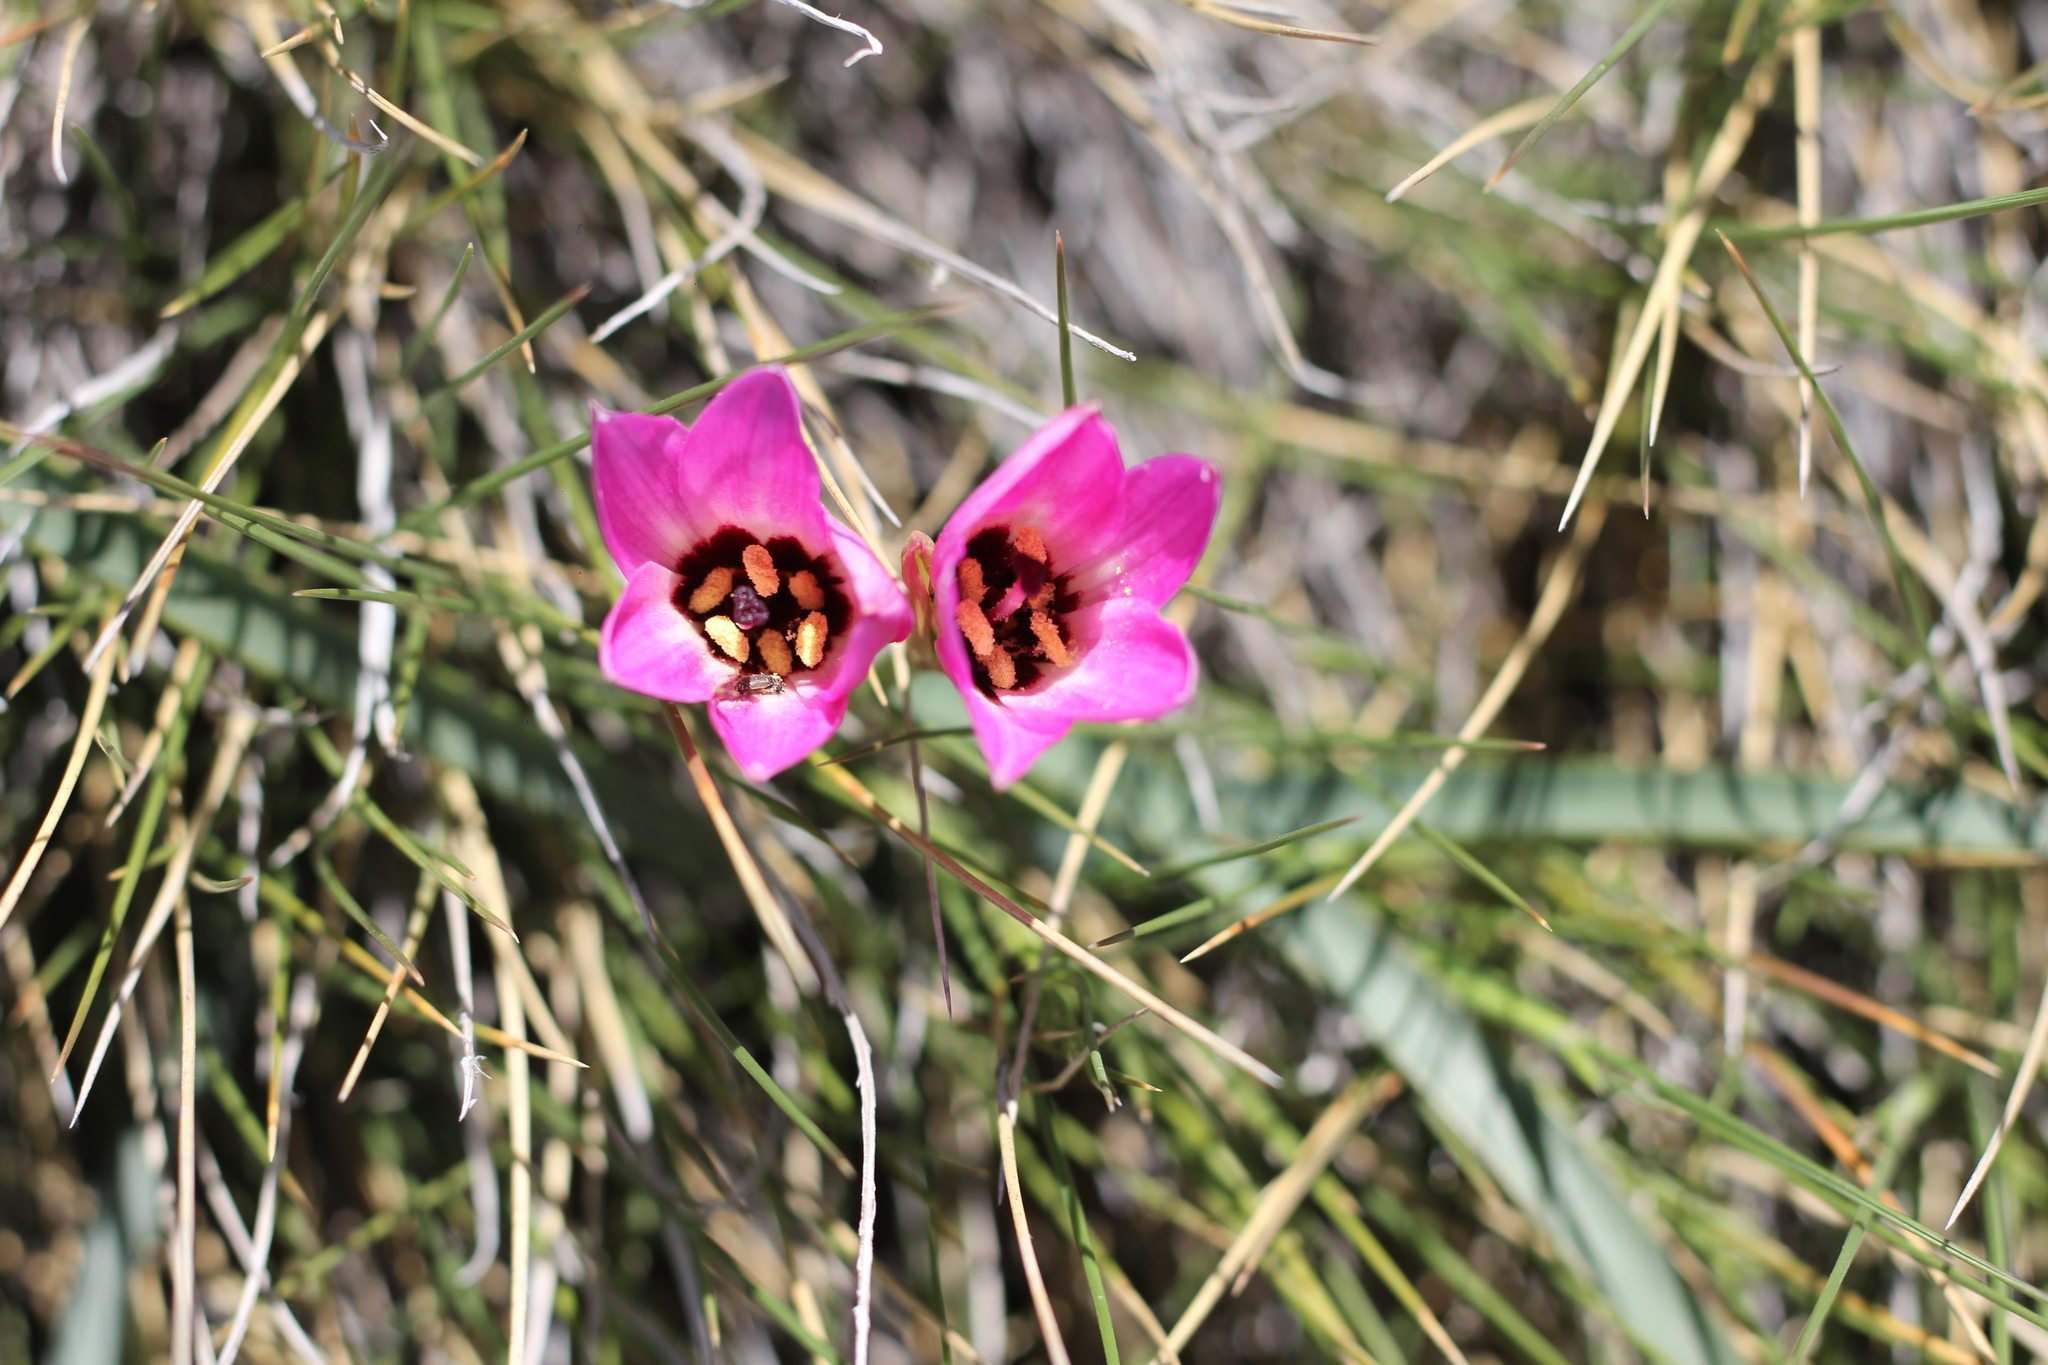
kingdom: Plantae
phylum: Tracheophyta
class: Liliopsida
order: Asparagales
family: Amaryllidaceae
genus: Rhodolirium
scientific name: Rhodolirium andicola
